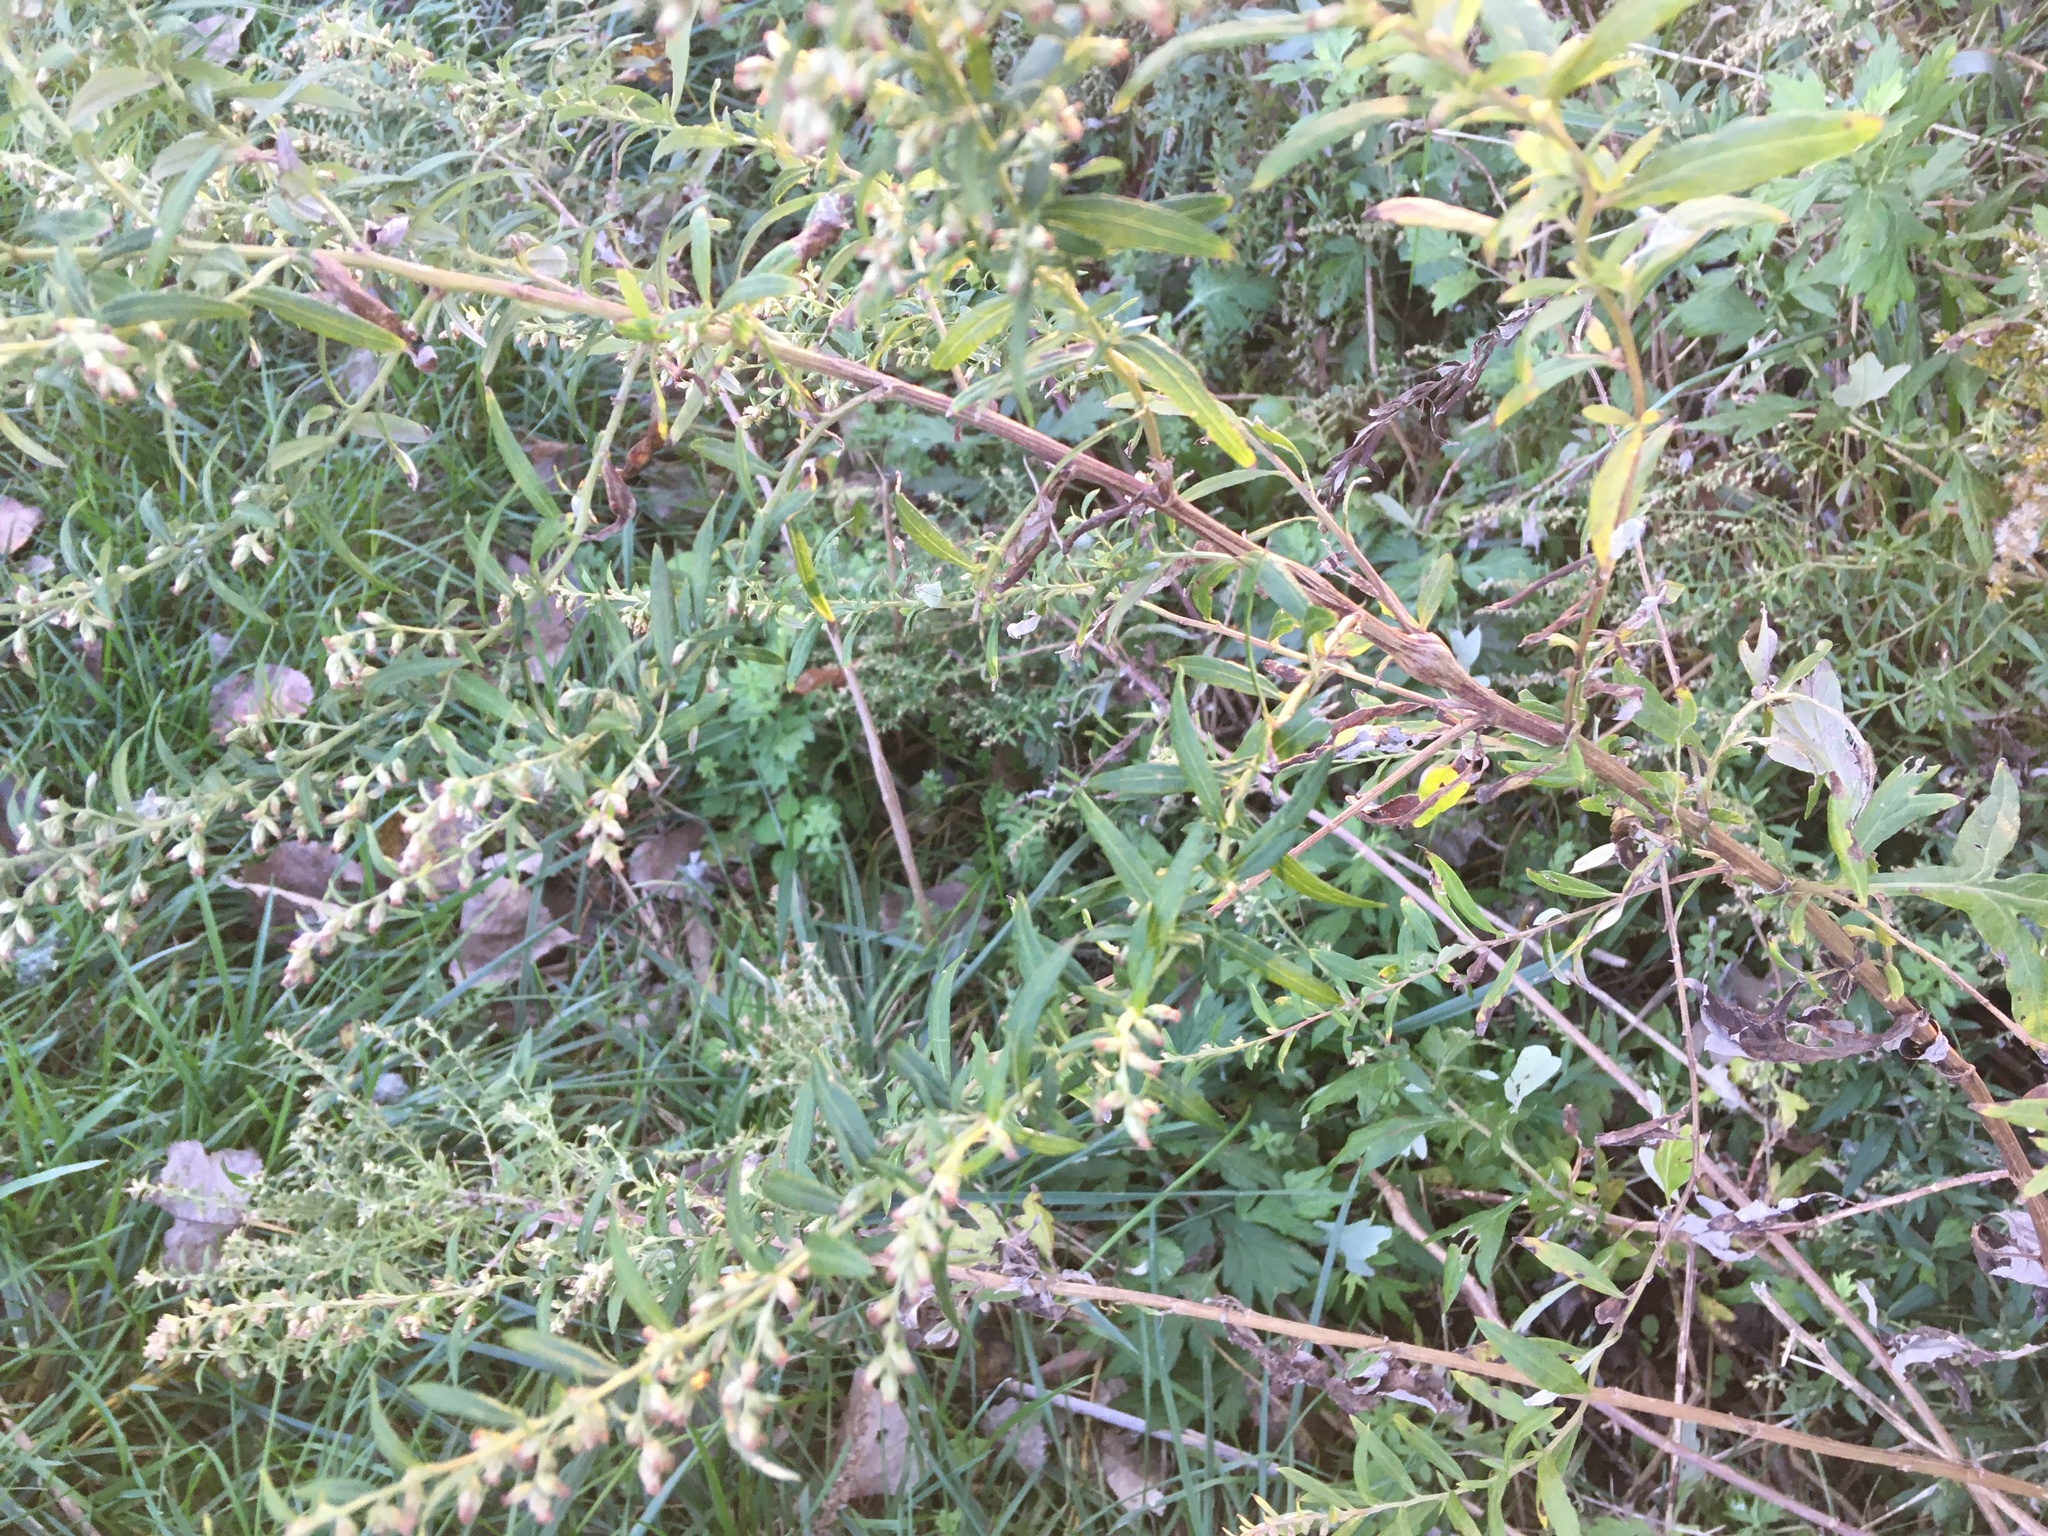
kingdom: Plantae
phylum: Tracheophyta
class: Magnoliopsida
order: Asterales
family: Asteraceae
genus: Artemisia
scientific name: Artemisia vulgaris
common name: Mugwort
